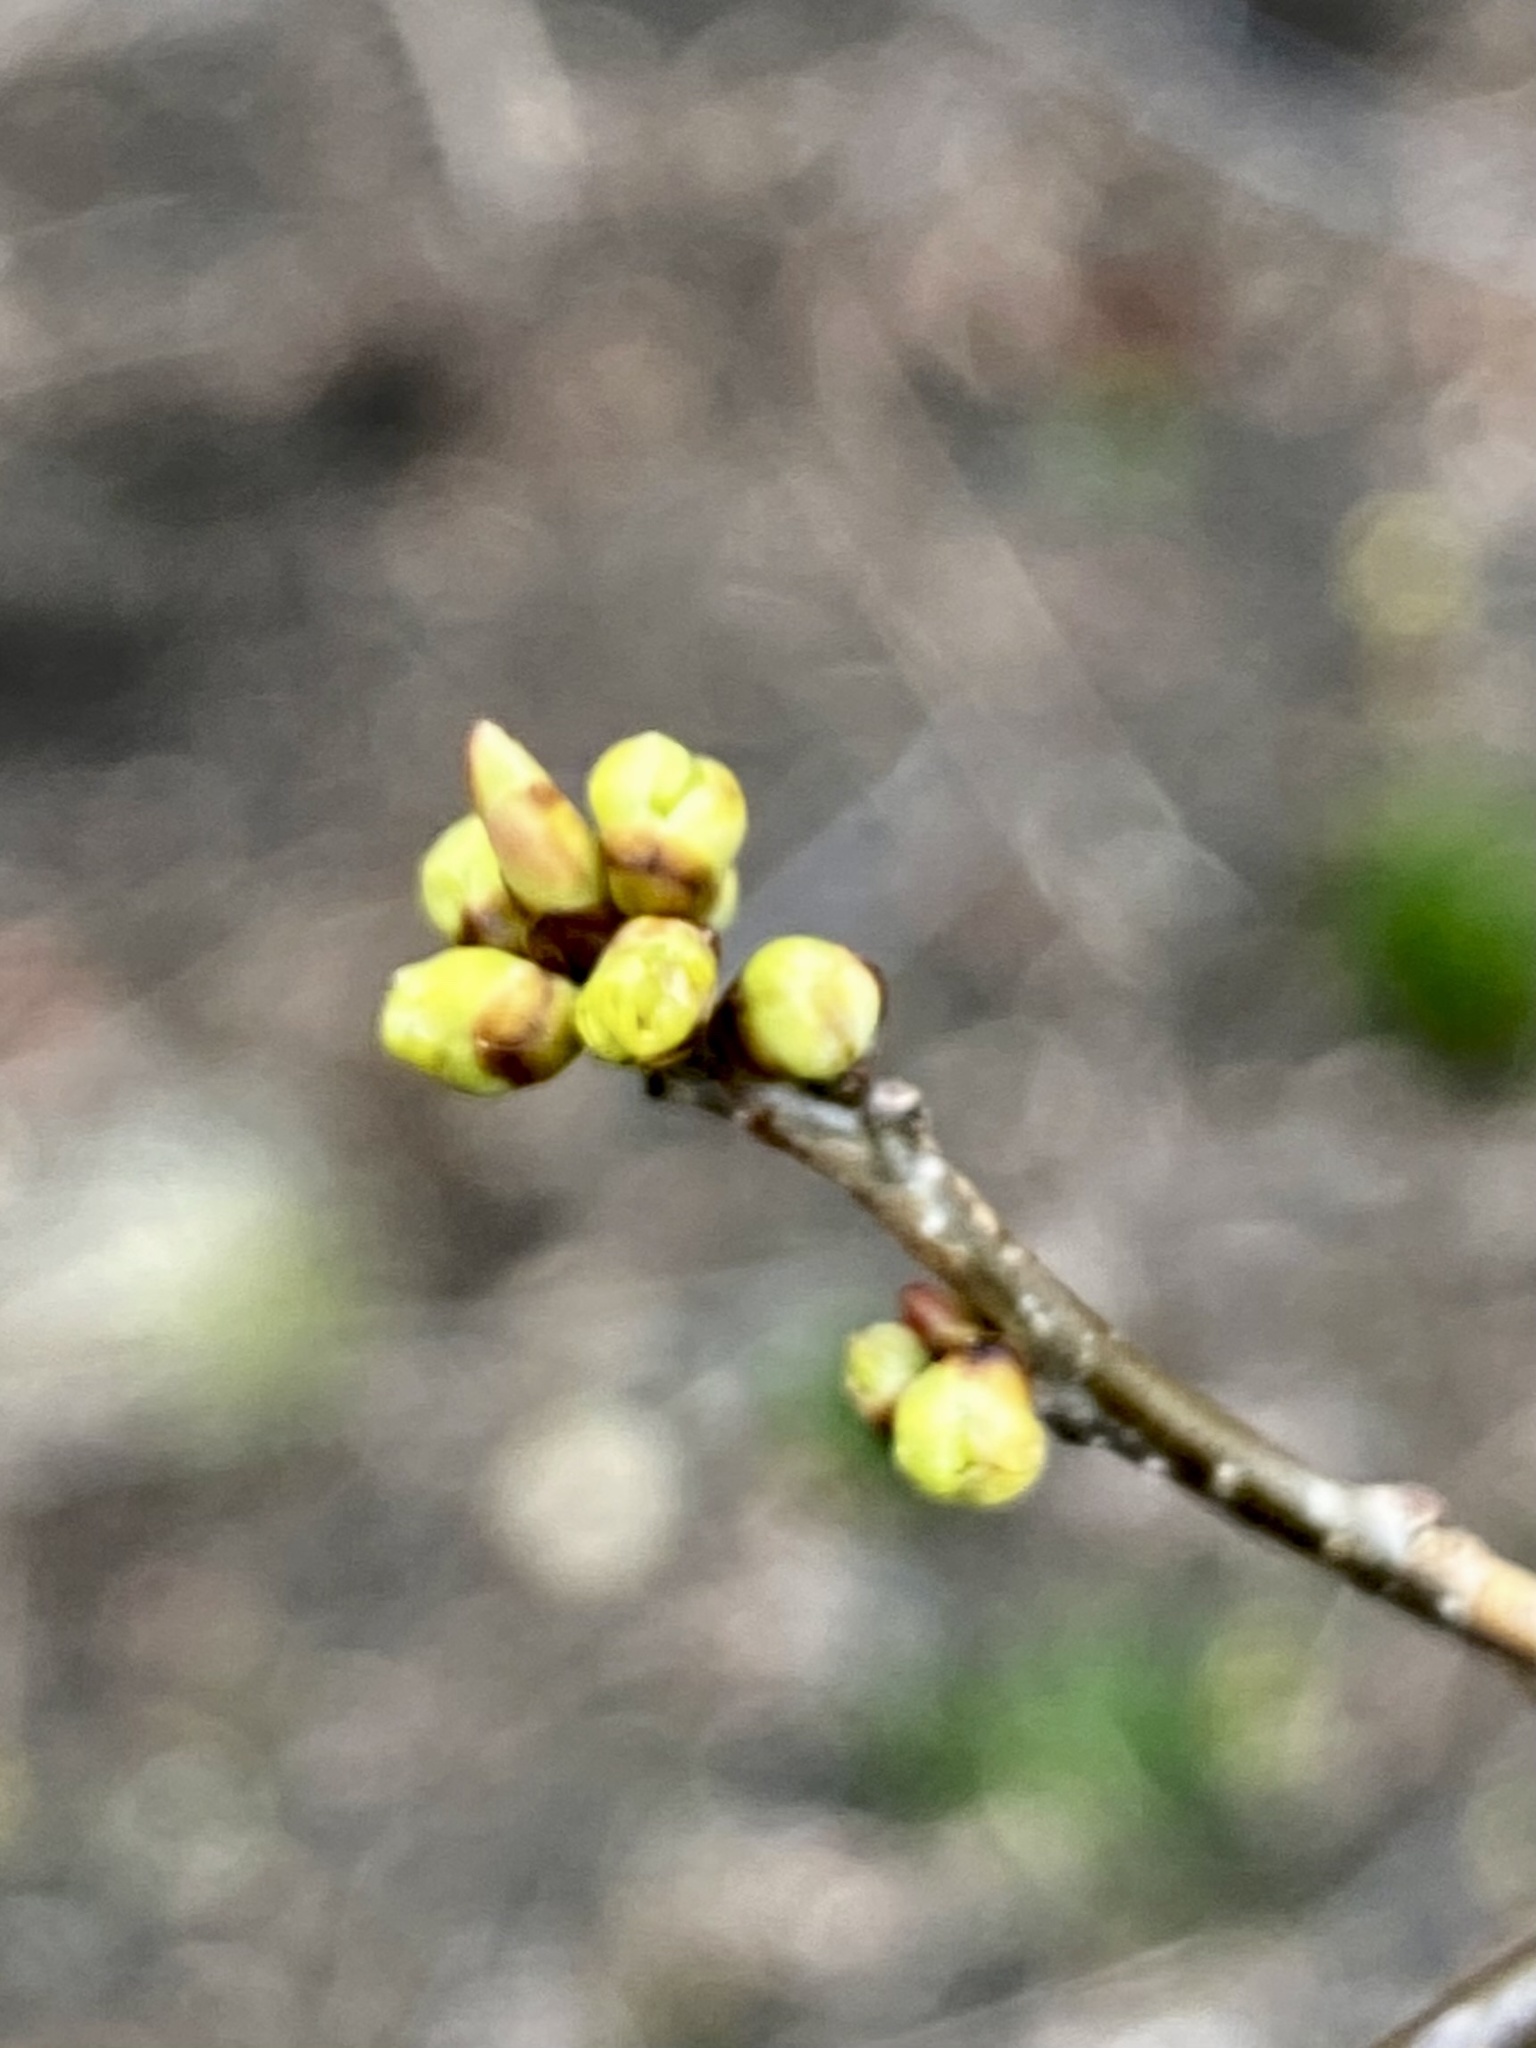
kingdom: Plantae
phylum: Tracheophyta
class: Magnoliopsida
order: Laurales
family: Lauraceae
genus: Lindera
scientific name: Lindera benzoin
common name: Spicebush
